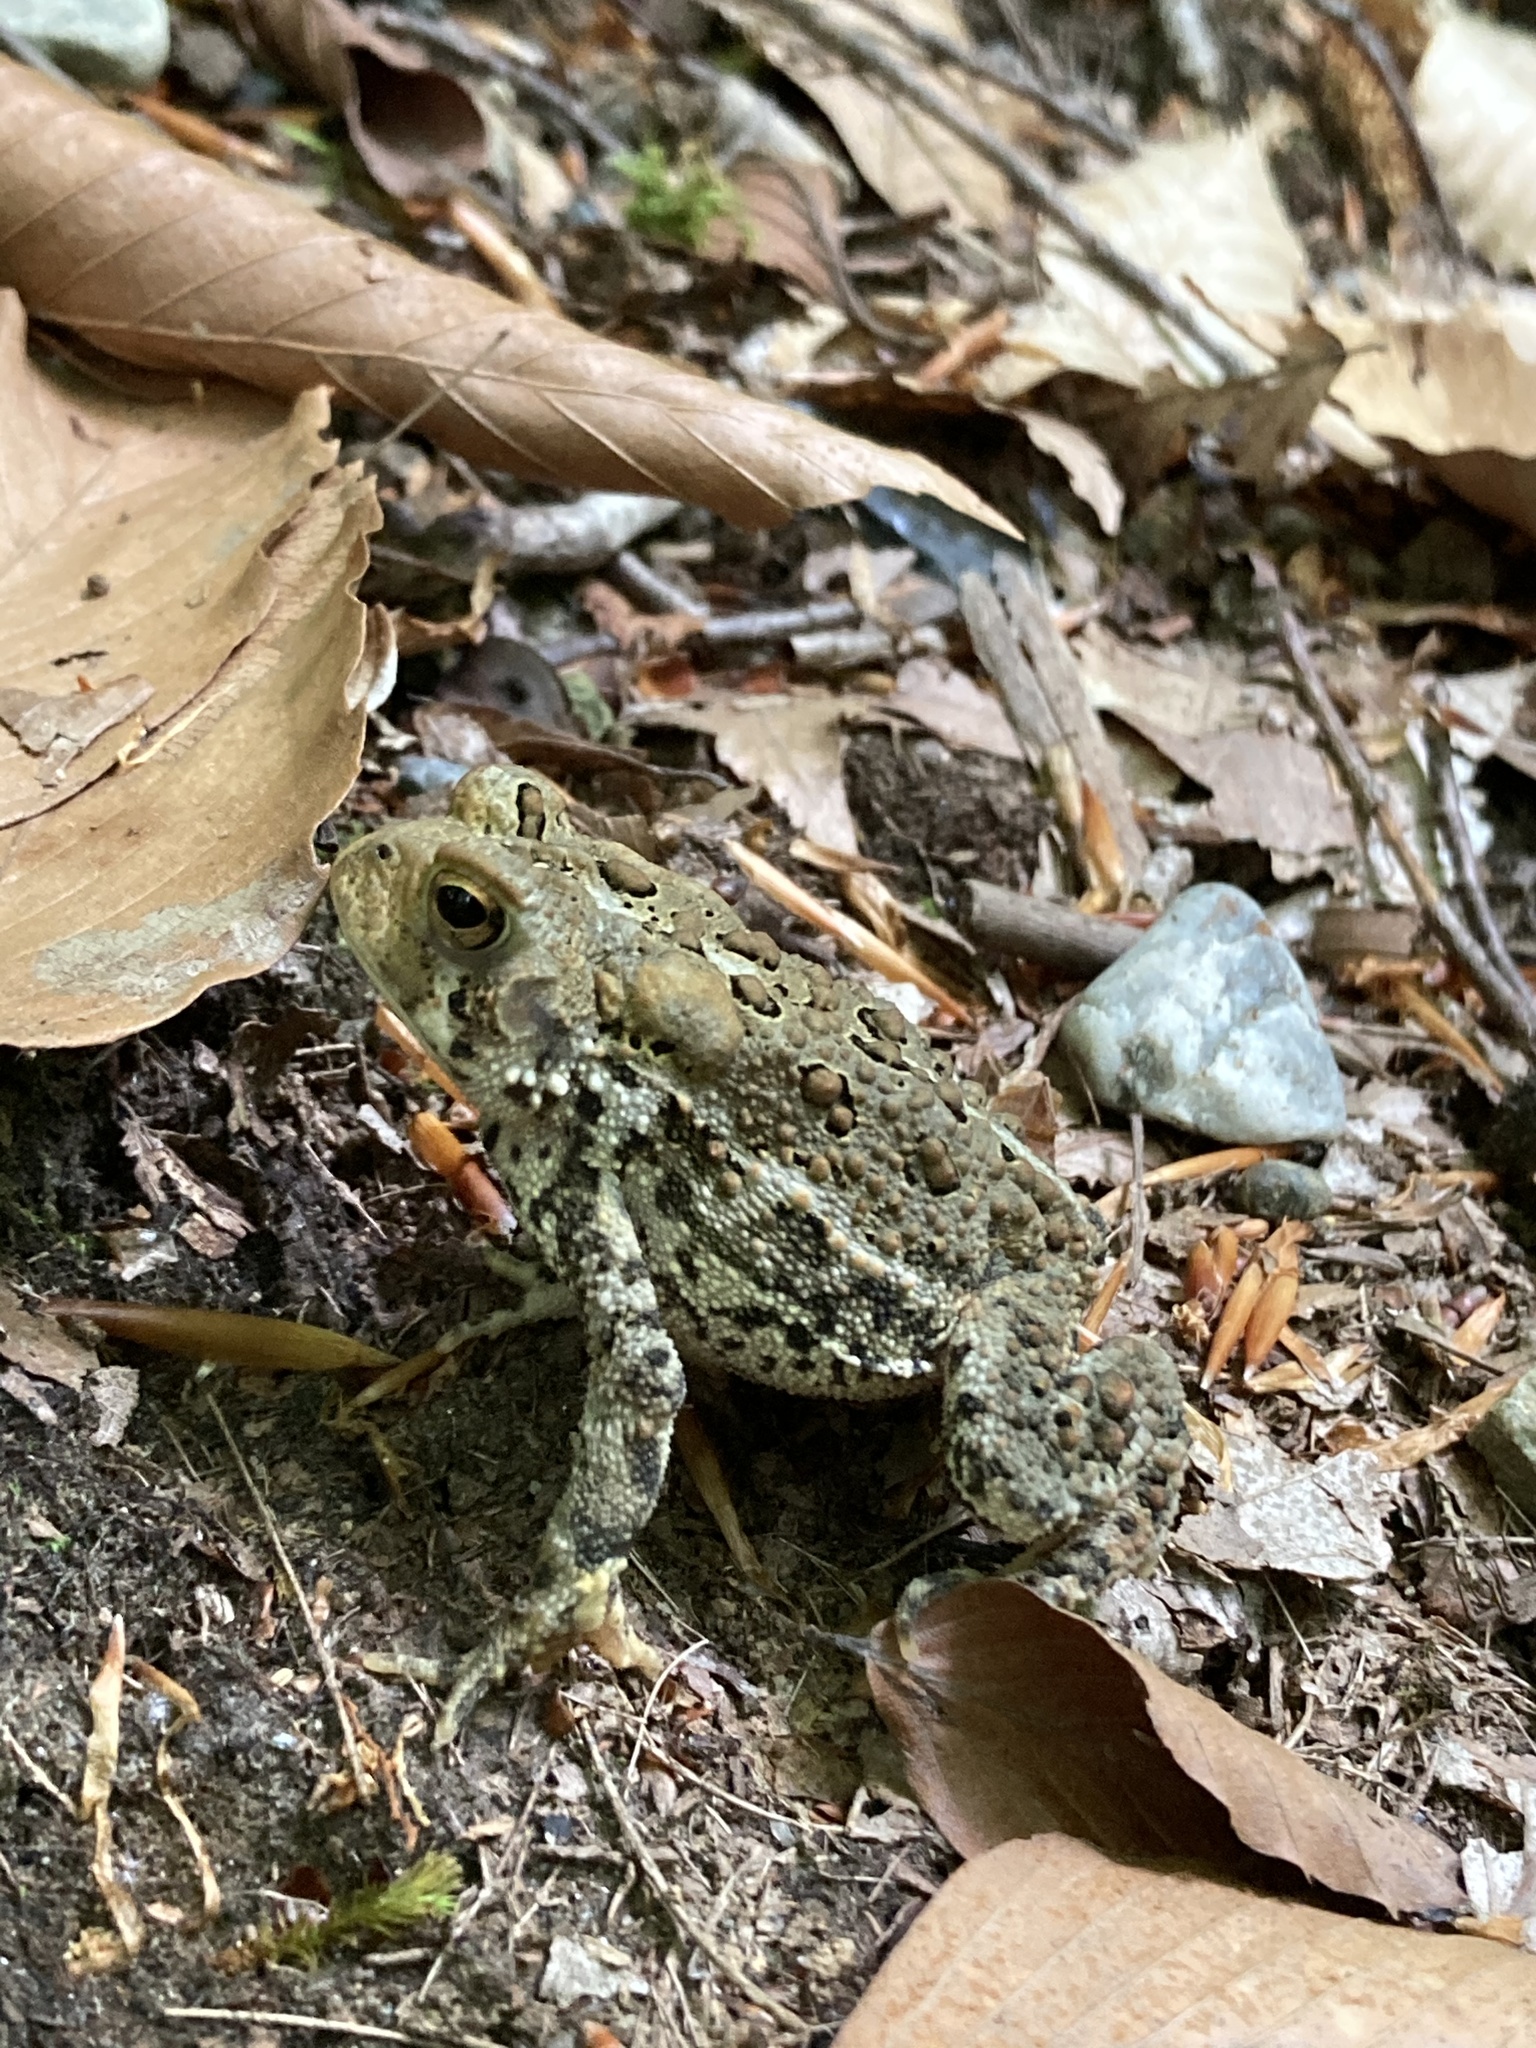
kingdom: Animalia
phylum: Chordata
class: Amphibia
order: Anura
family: Bufonidae
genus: Anaxyrus
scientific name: Anaxyrus americanus
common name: American toad
